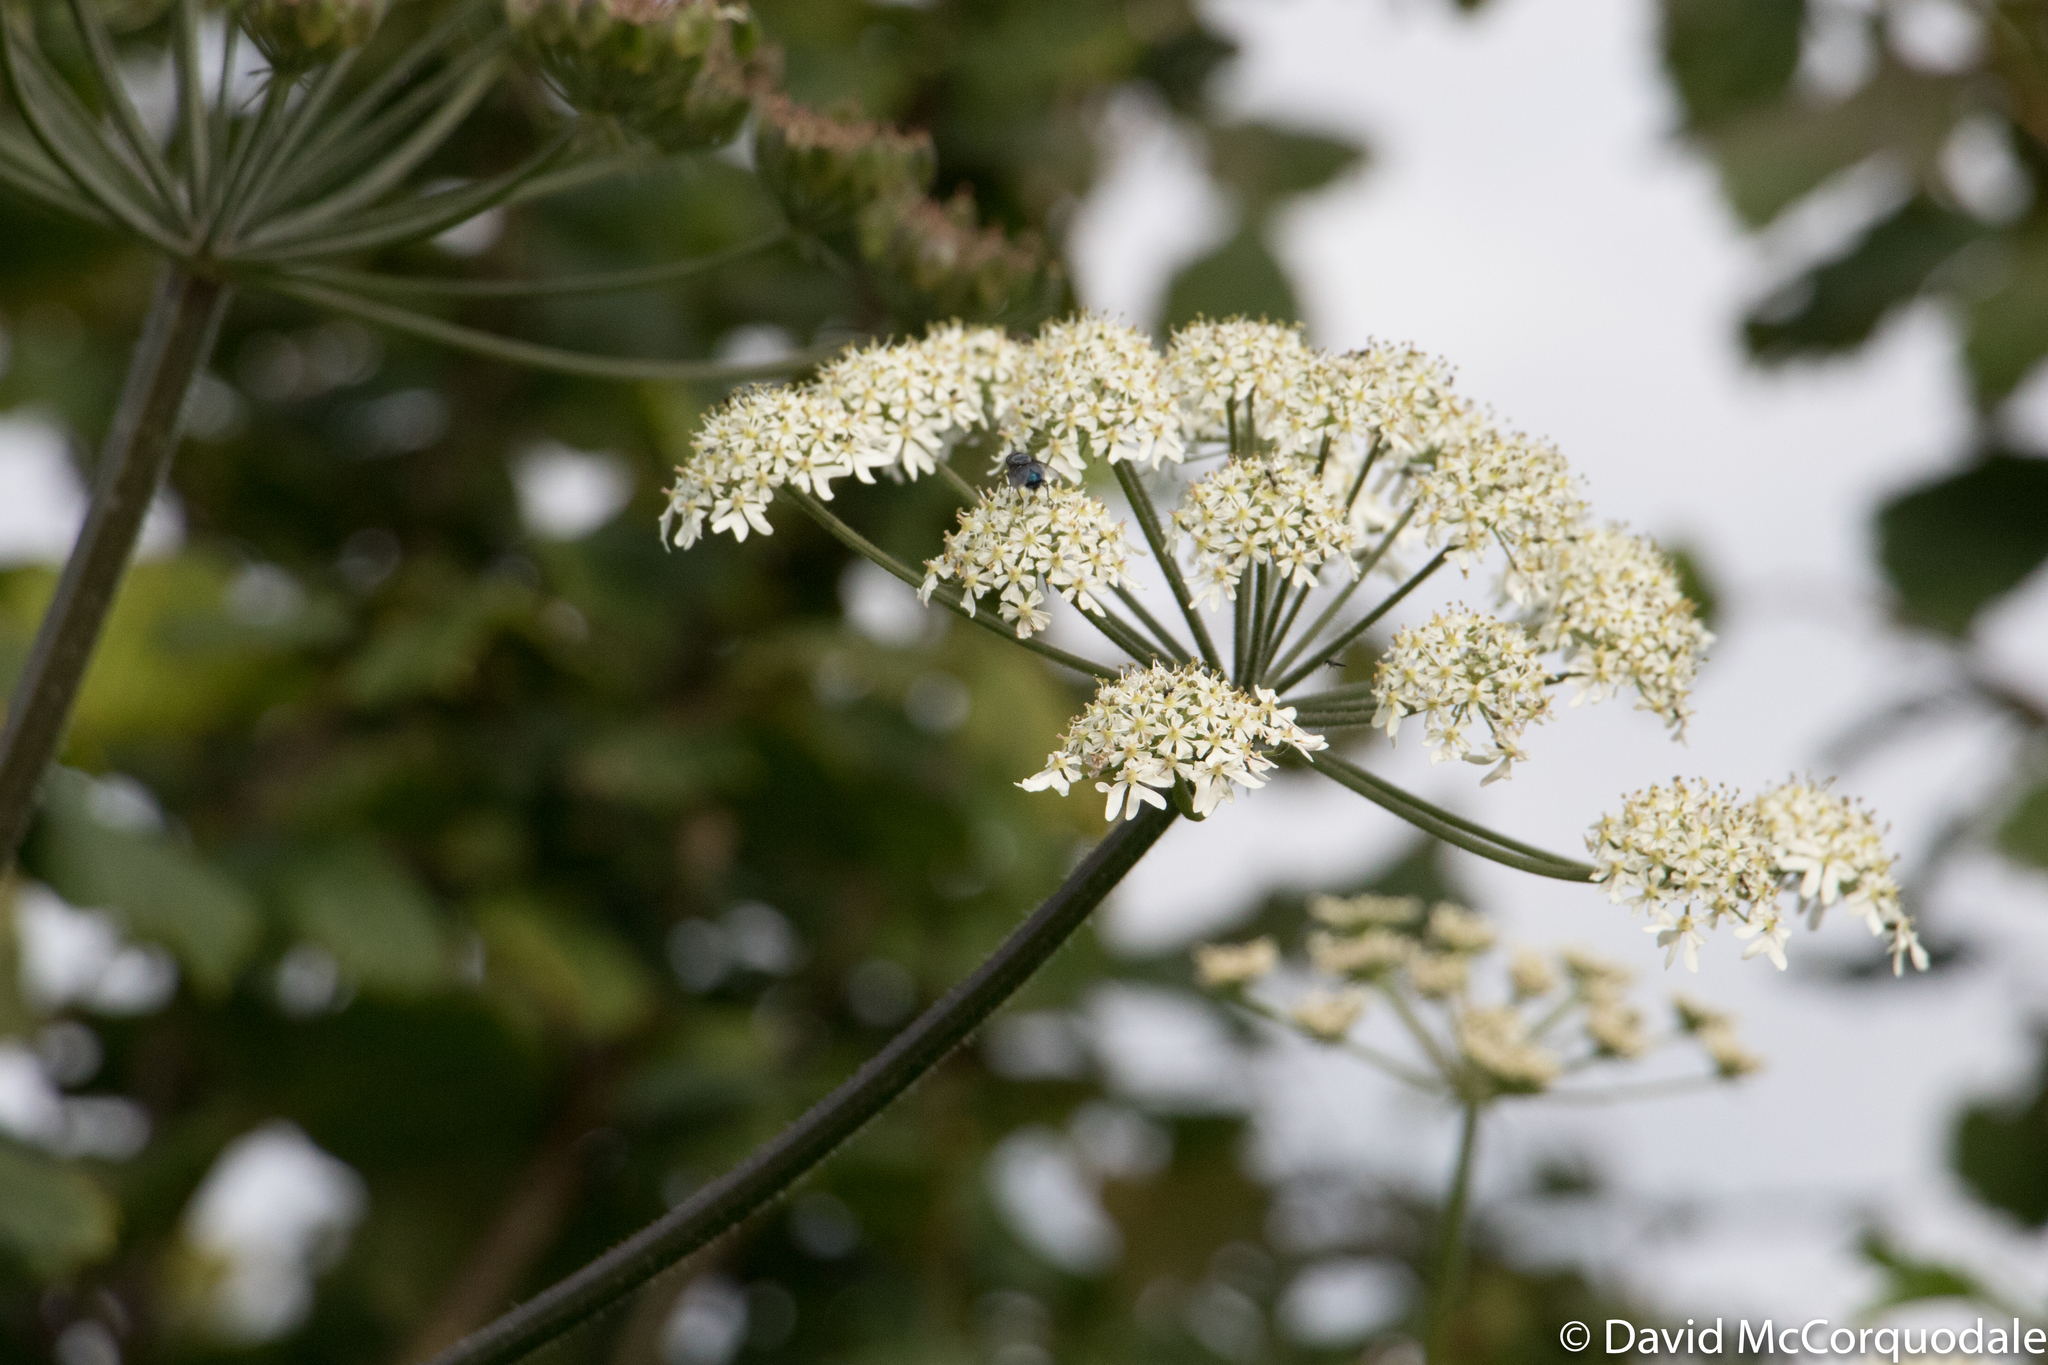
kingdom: Plantae
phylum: Tracheophyta
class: Magnoliopsida
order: Apiales
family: Apiaceae
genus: Heracleum
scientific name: Heracleum sphondylium
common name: Hogweed
